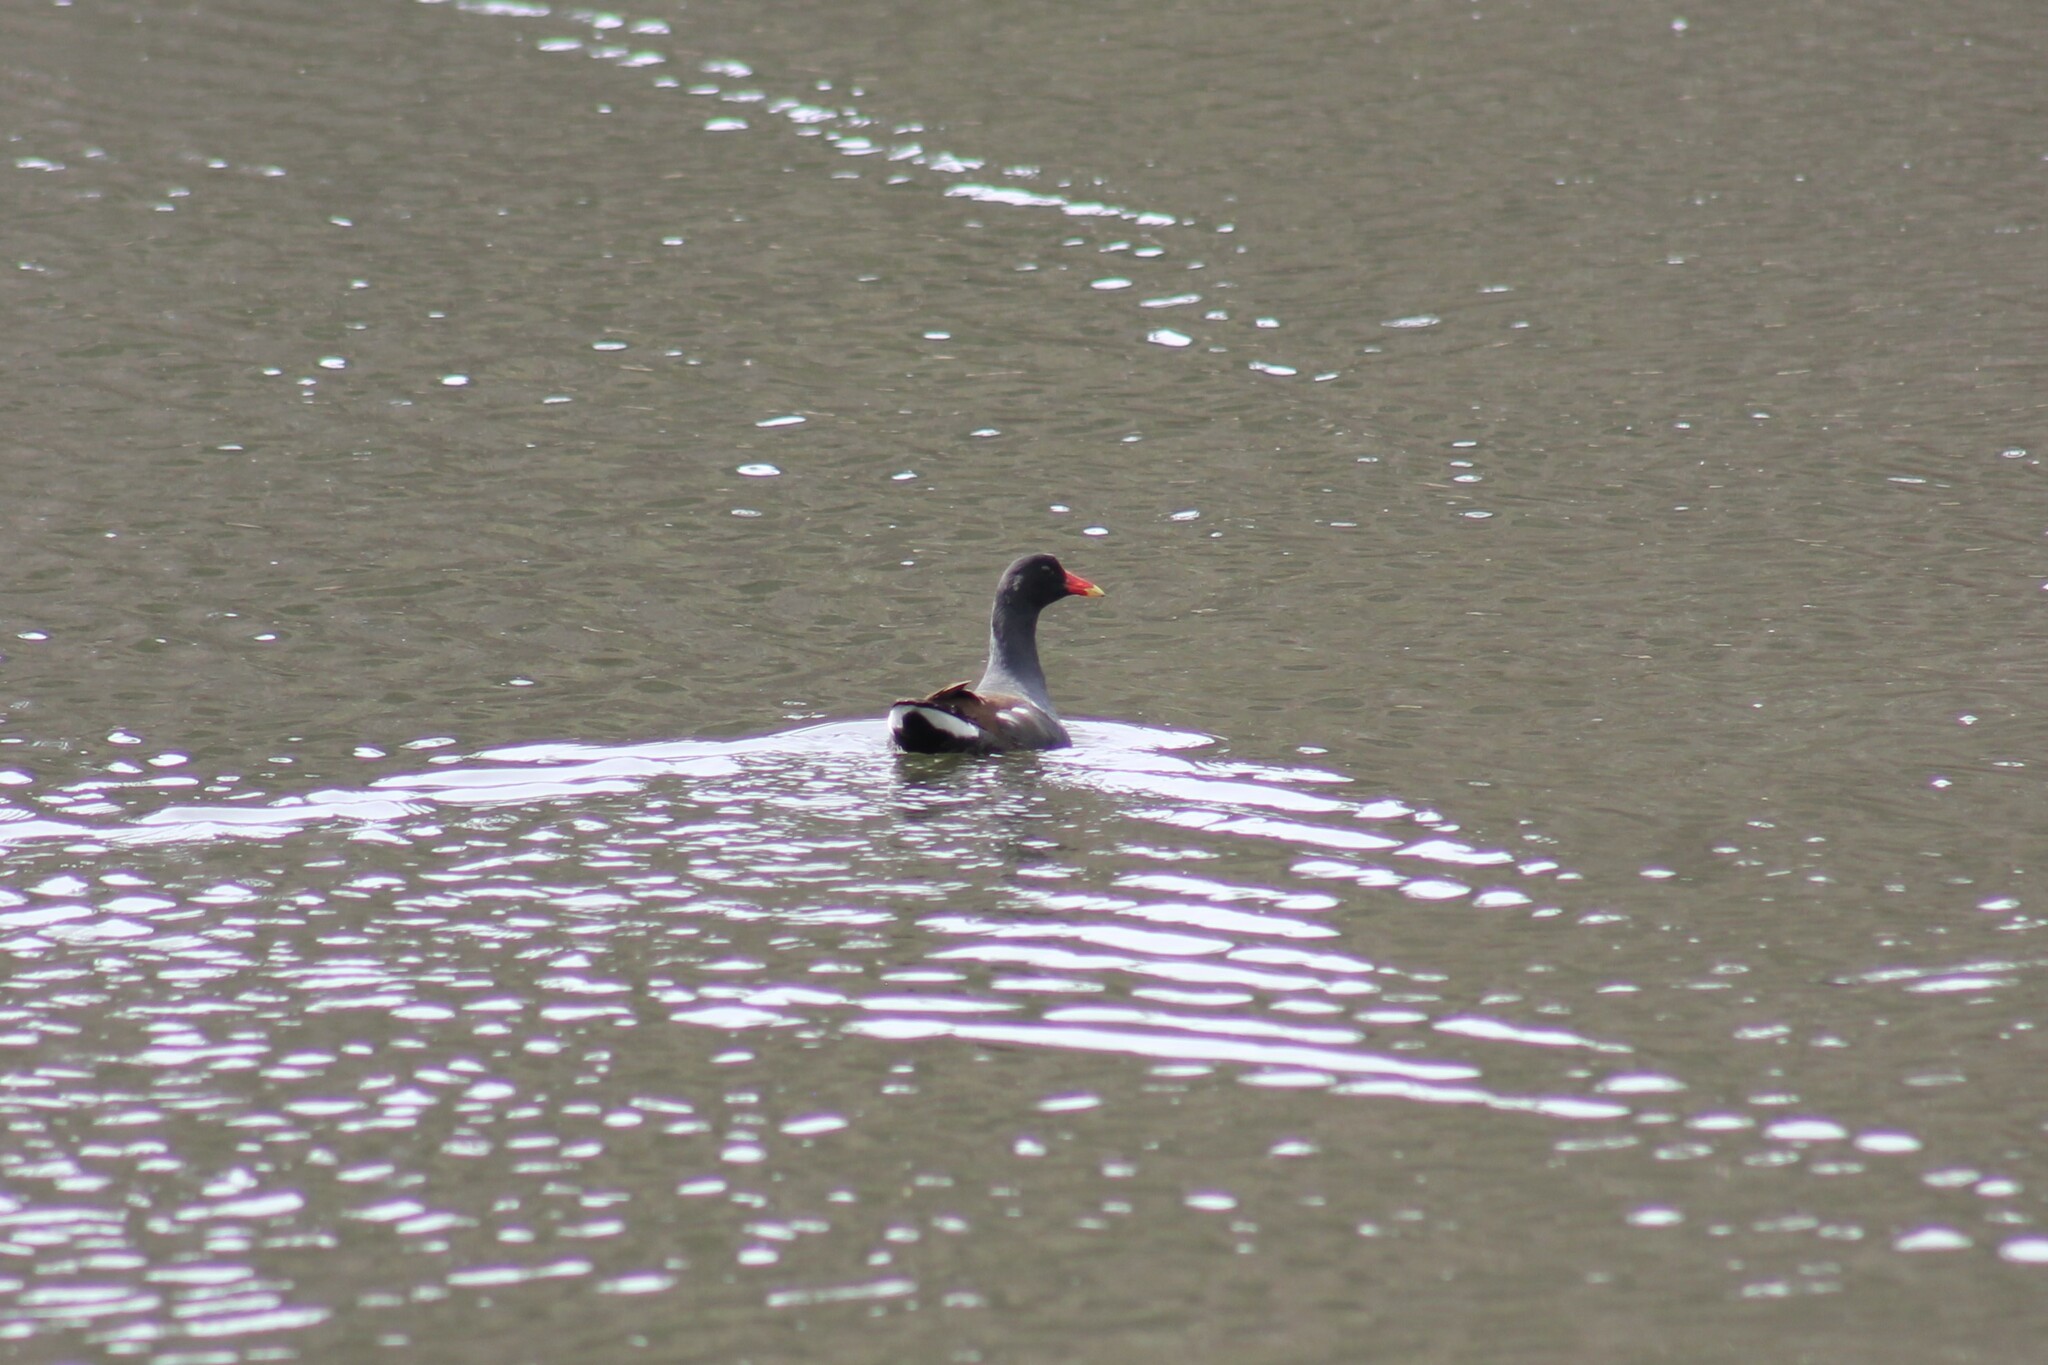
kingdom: Animalia
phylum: Chordata
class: Aves
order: Gruiformes
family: Rallidae
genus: Gallinula
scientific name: Gallinula chloropus
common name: Common moorhen
